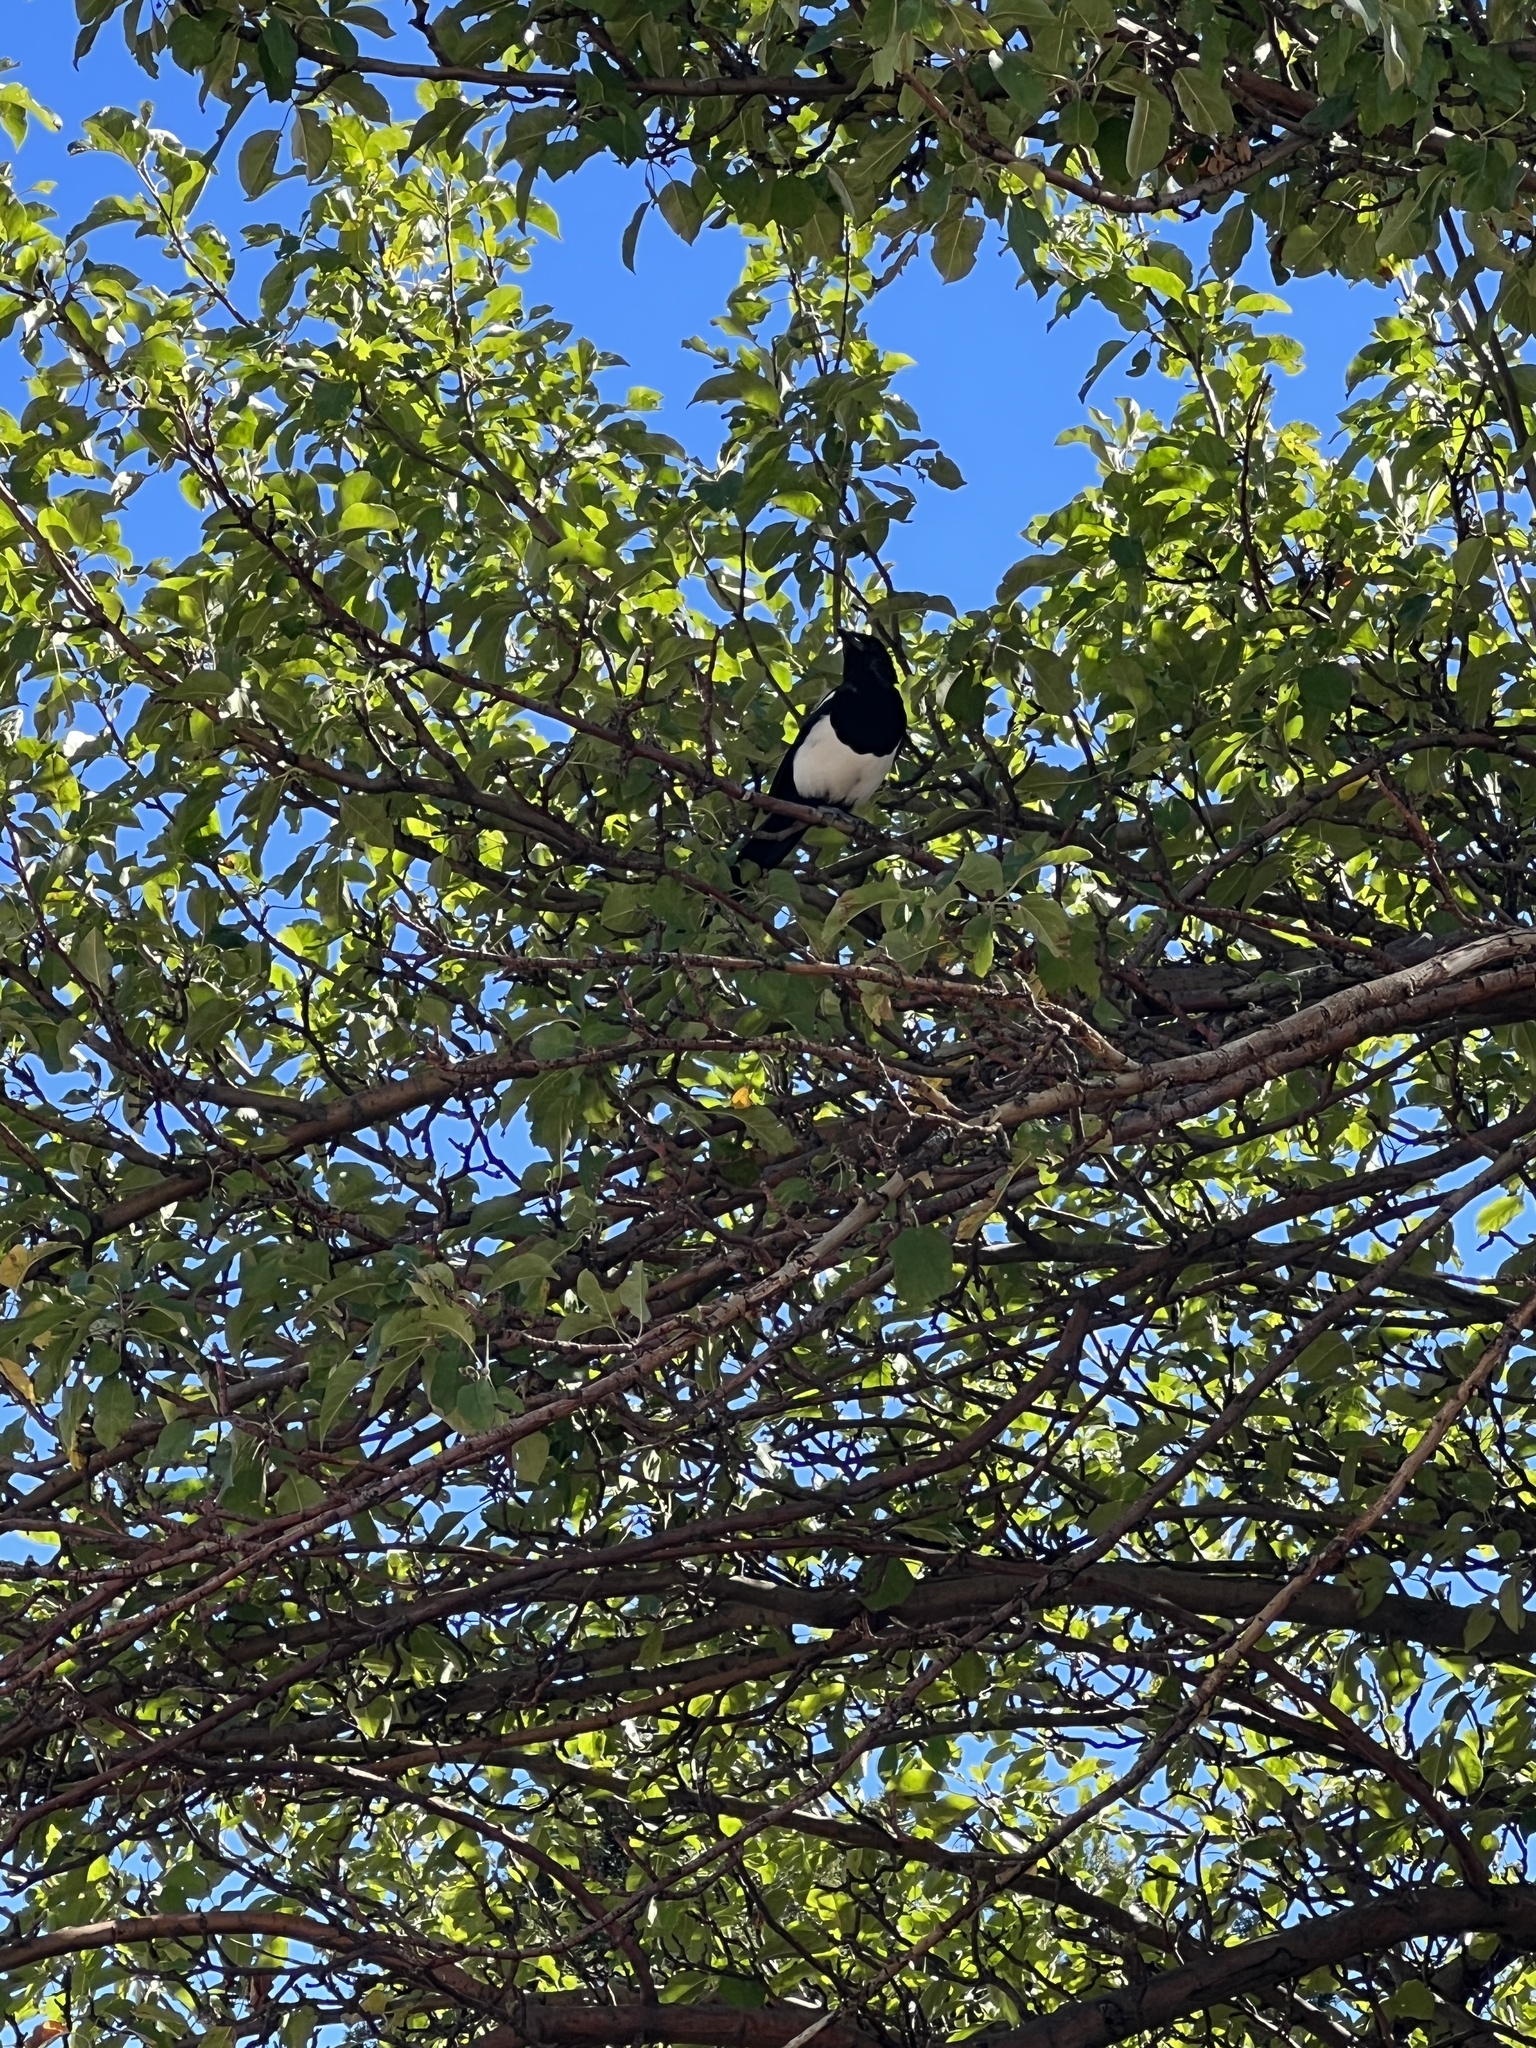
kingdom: Animalia
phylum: Chordata
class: Aves
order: Passeriformes
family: Corvidae
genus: Pica
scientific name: Pica hudsonia
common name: Black-billed magpie
